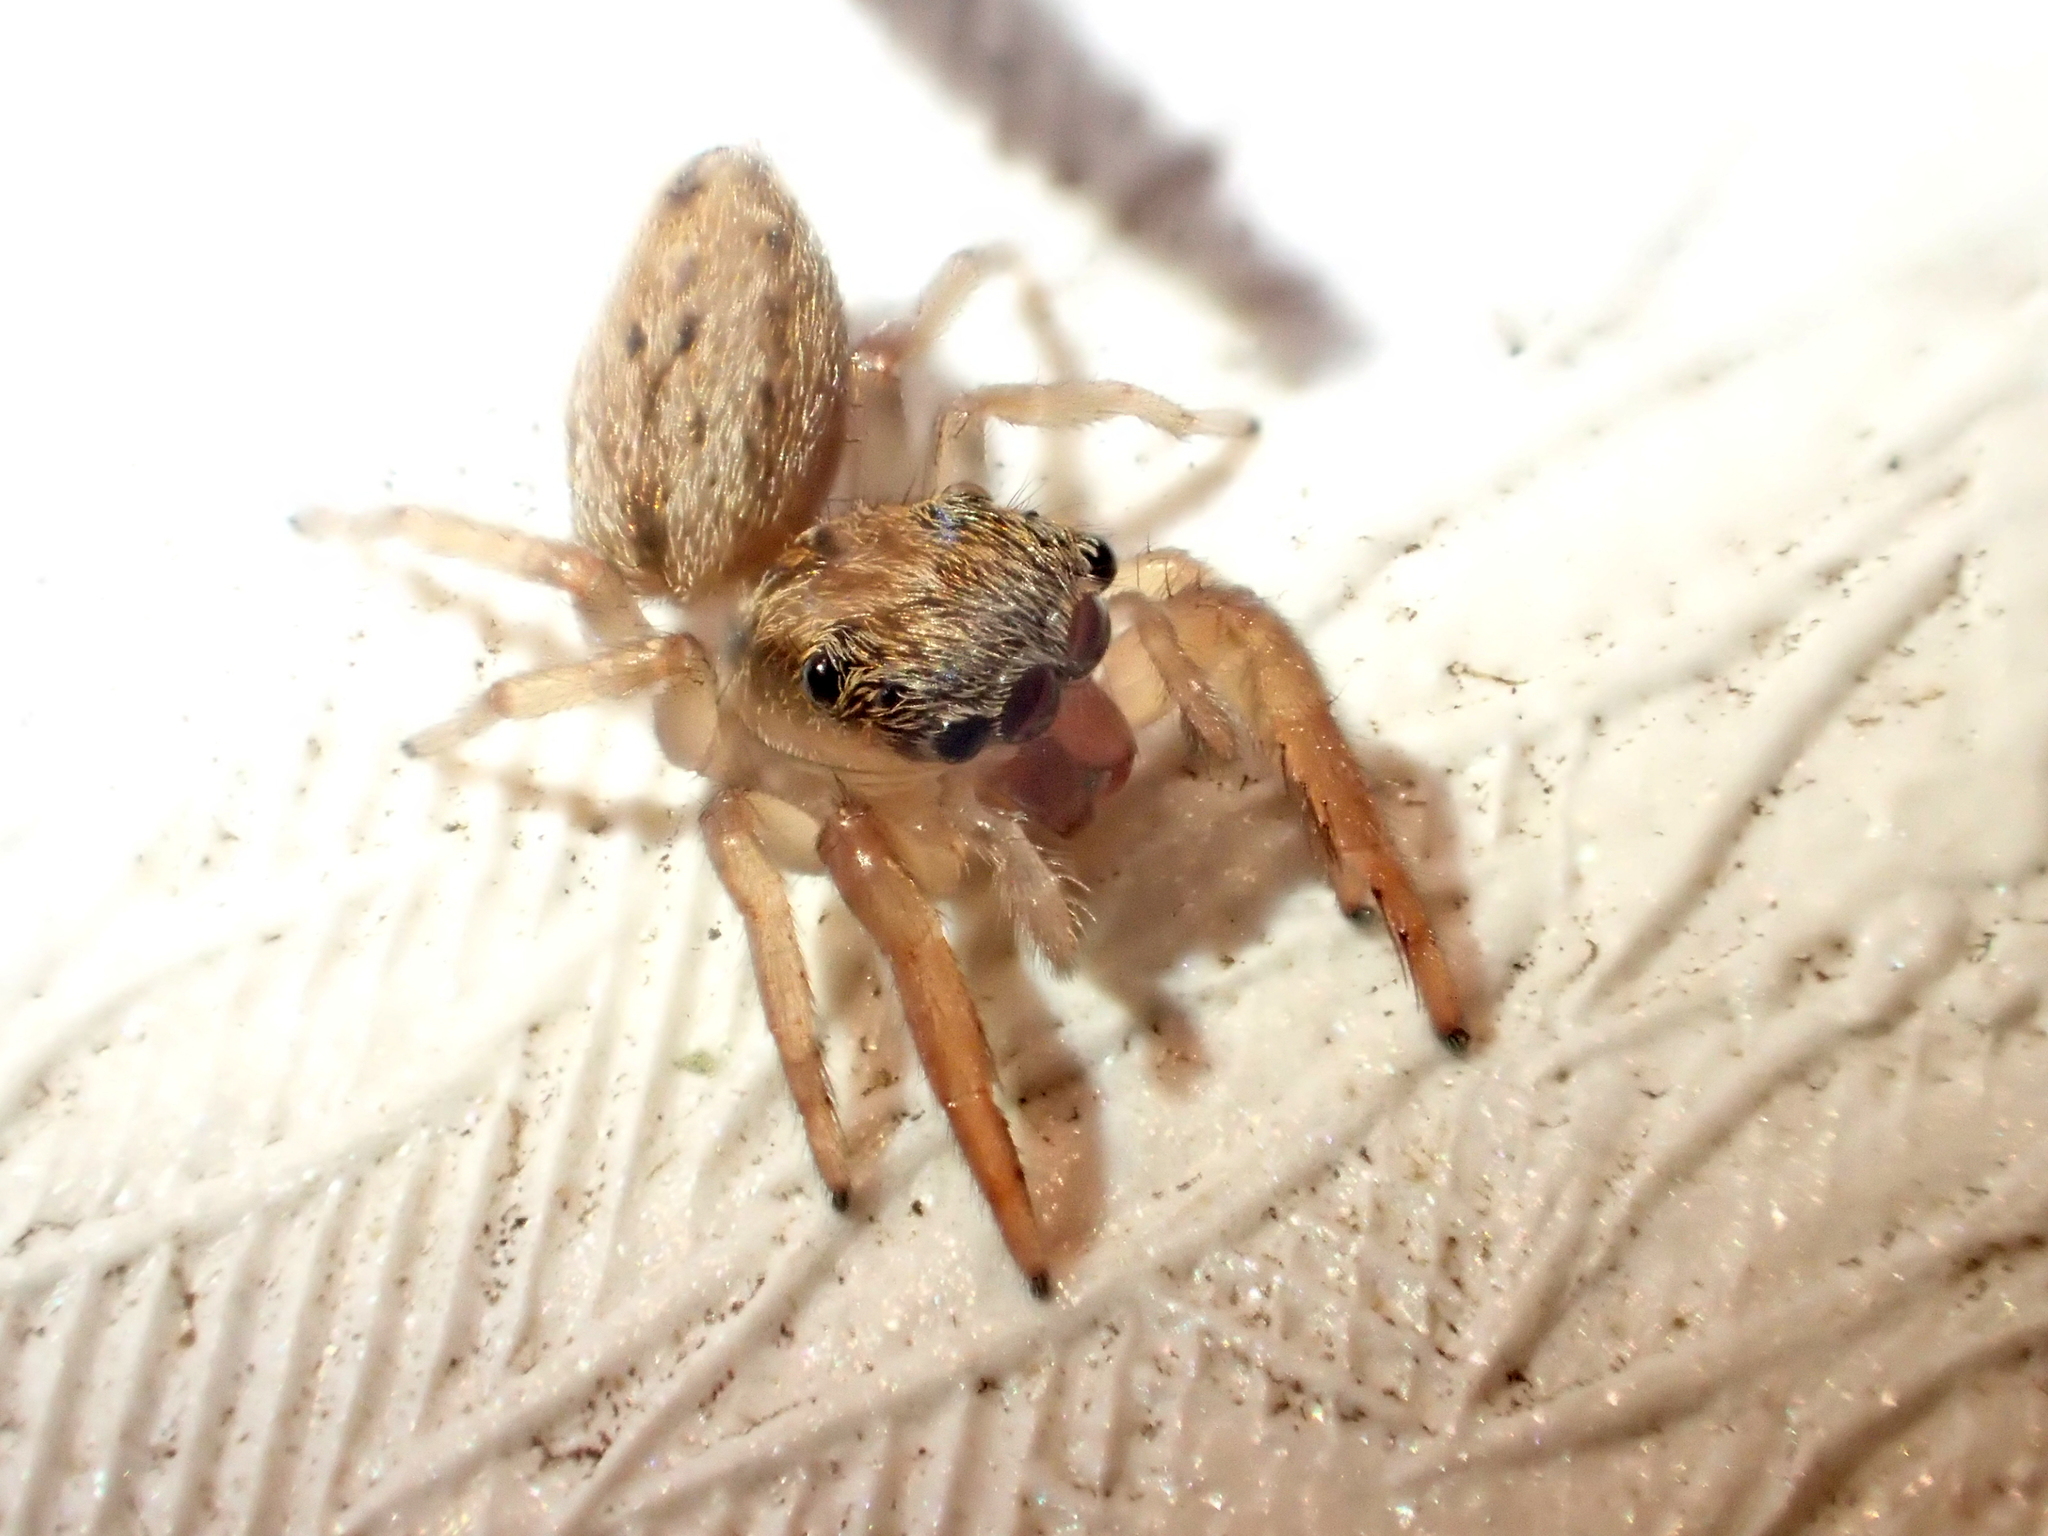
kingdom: Animalia
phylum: Arthropoda
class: Arachnida
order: Araneae
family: Salticidae
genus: Trite
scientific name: Trite auricoma
